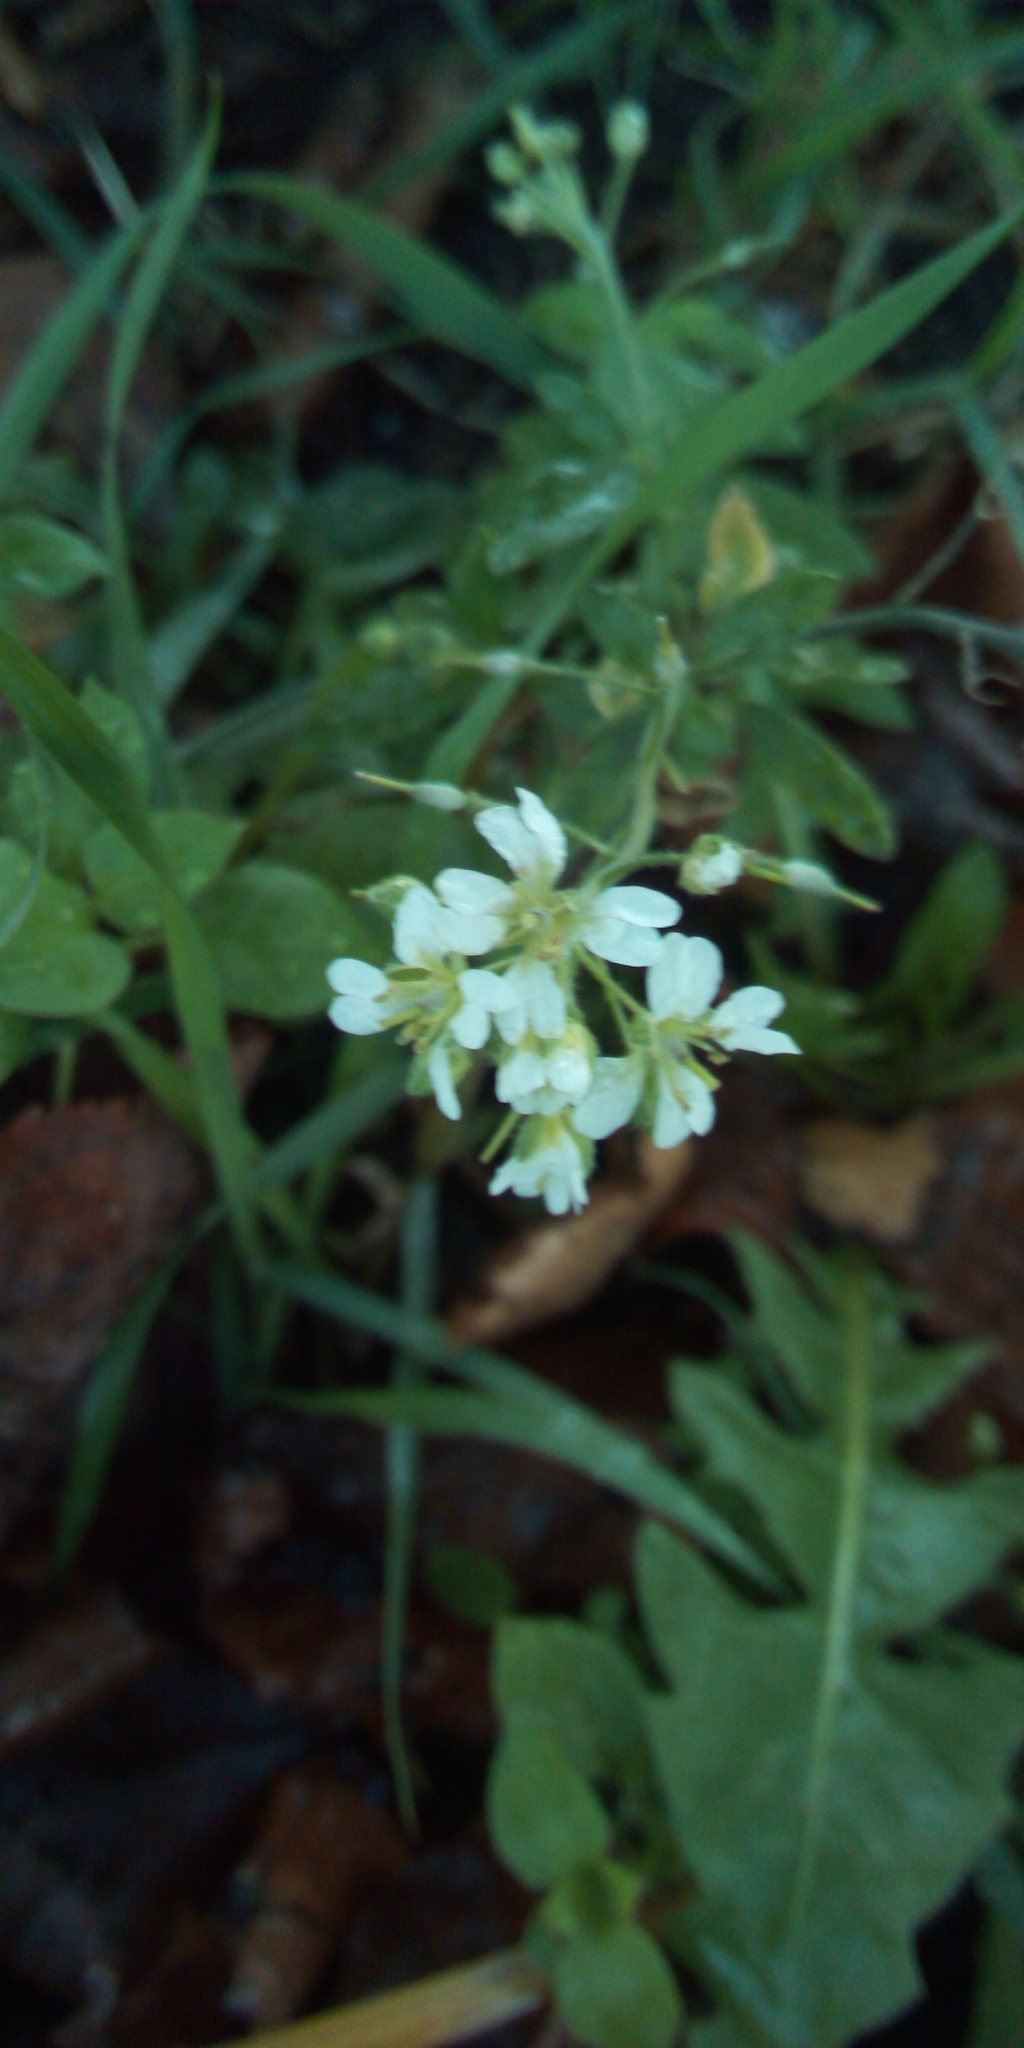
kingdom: Plantae
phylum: Tracheophyta
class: Magnoliopsida
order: Brassicales
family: Brassicaceae
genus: Berteroa
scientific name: Berteroa incana
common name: Hoary alison
